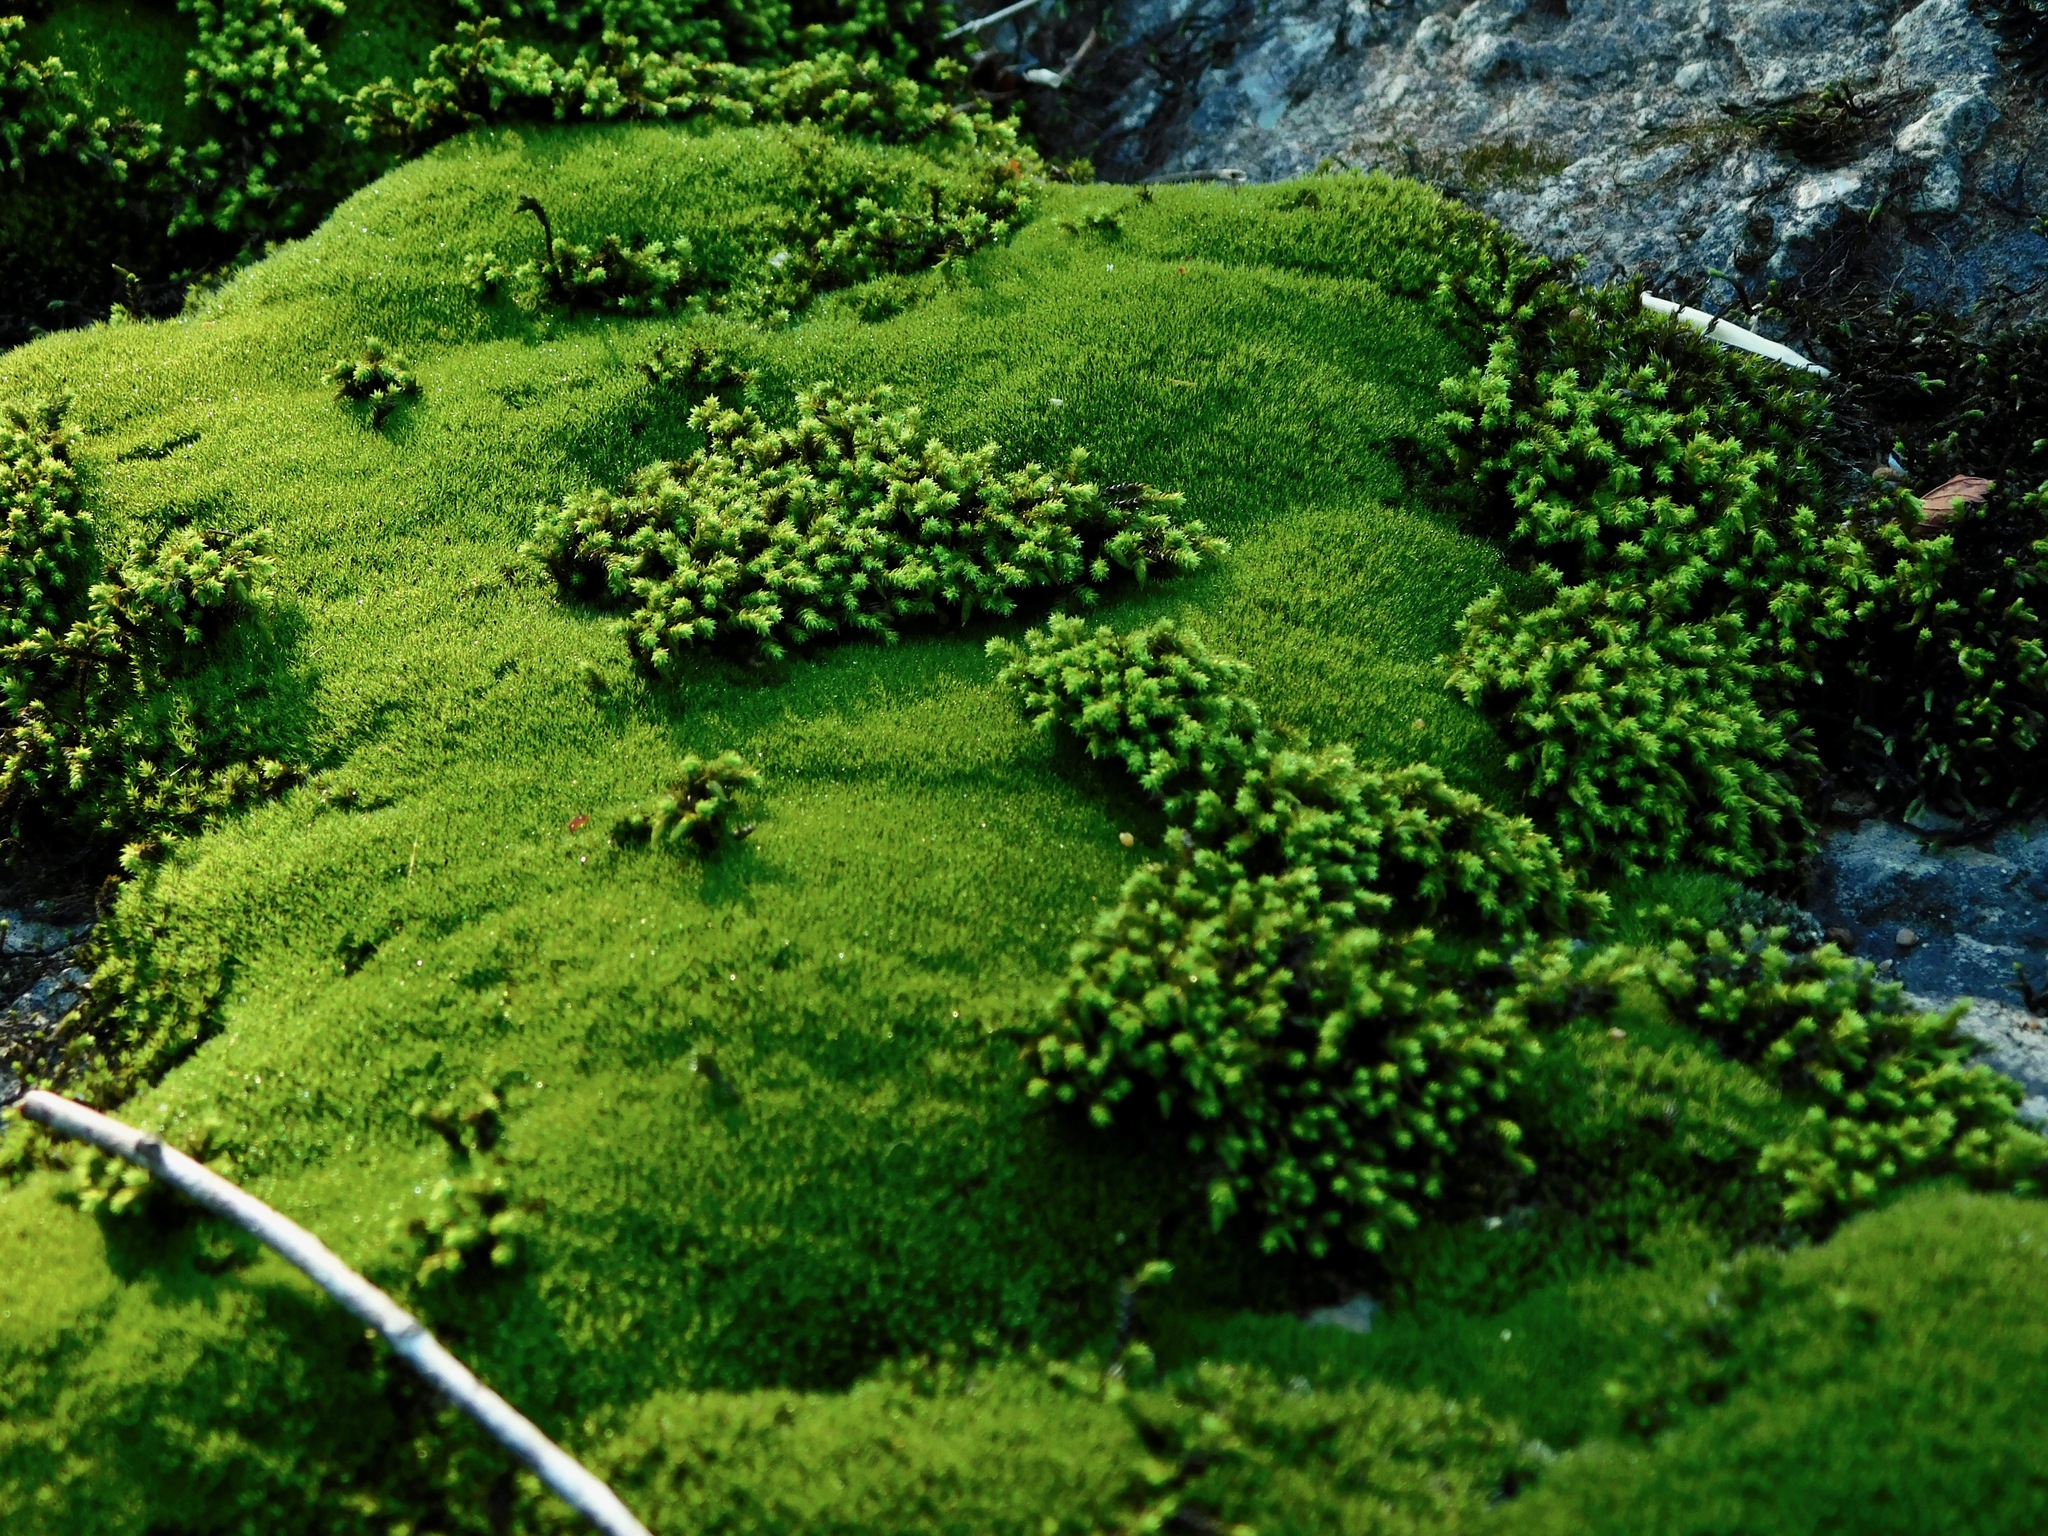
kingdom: Plantae
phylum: Bryophyta
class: Bryopsida
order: Hedwigiales
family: Hedwigiaceae
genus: Hedwigia
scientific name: Hedwigia ciliata
